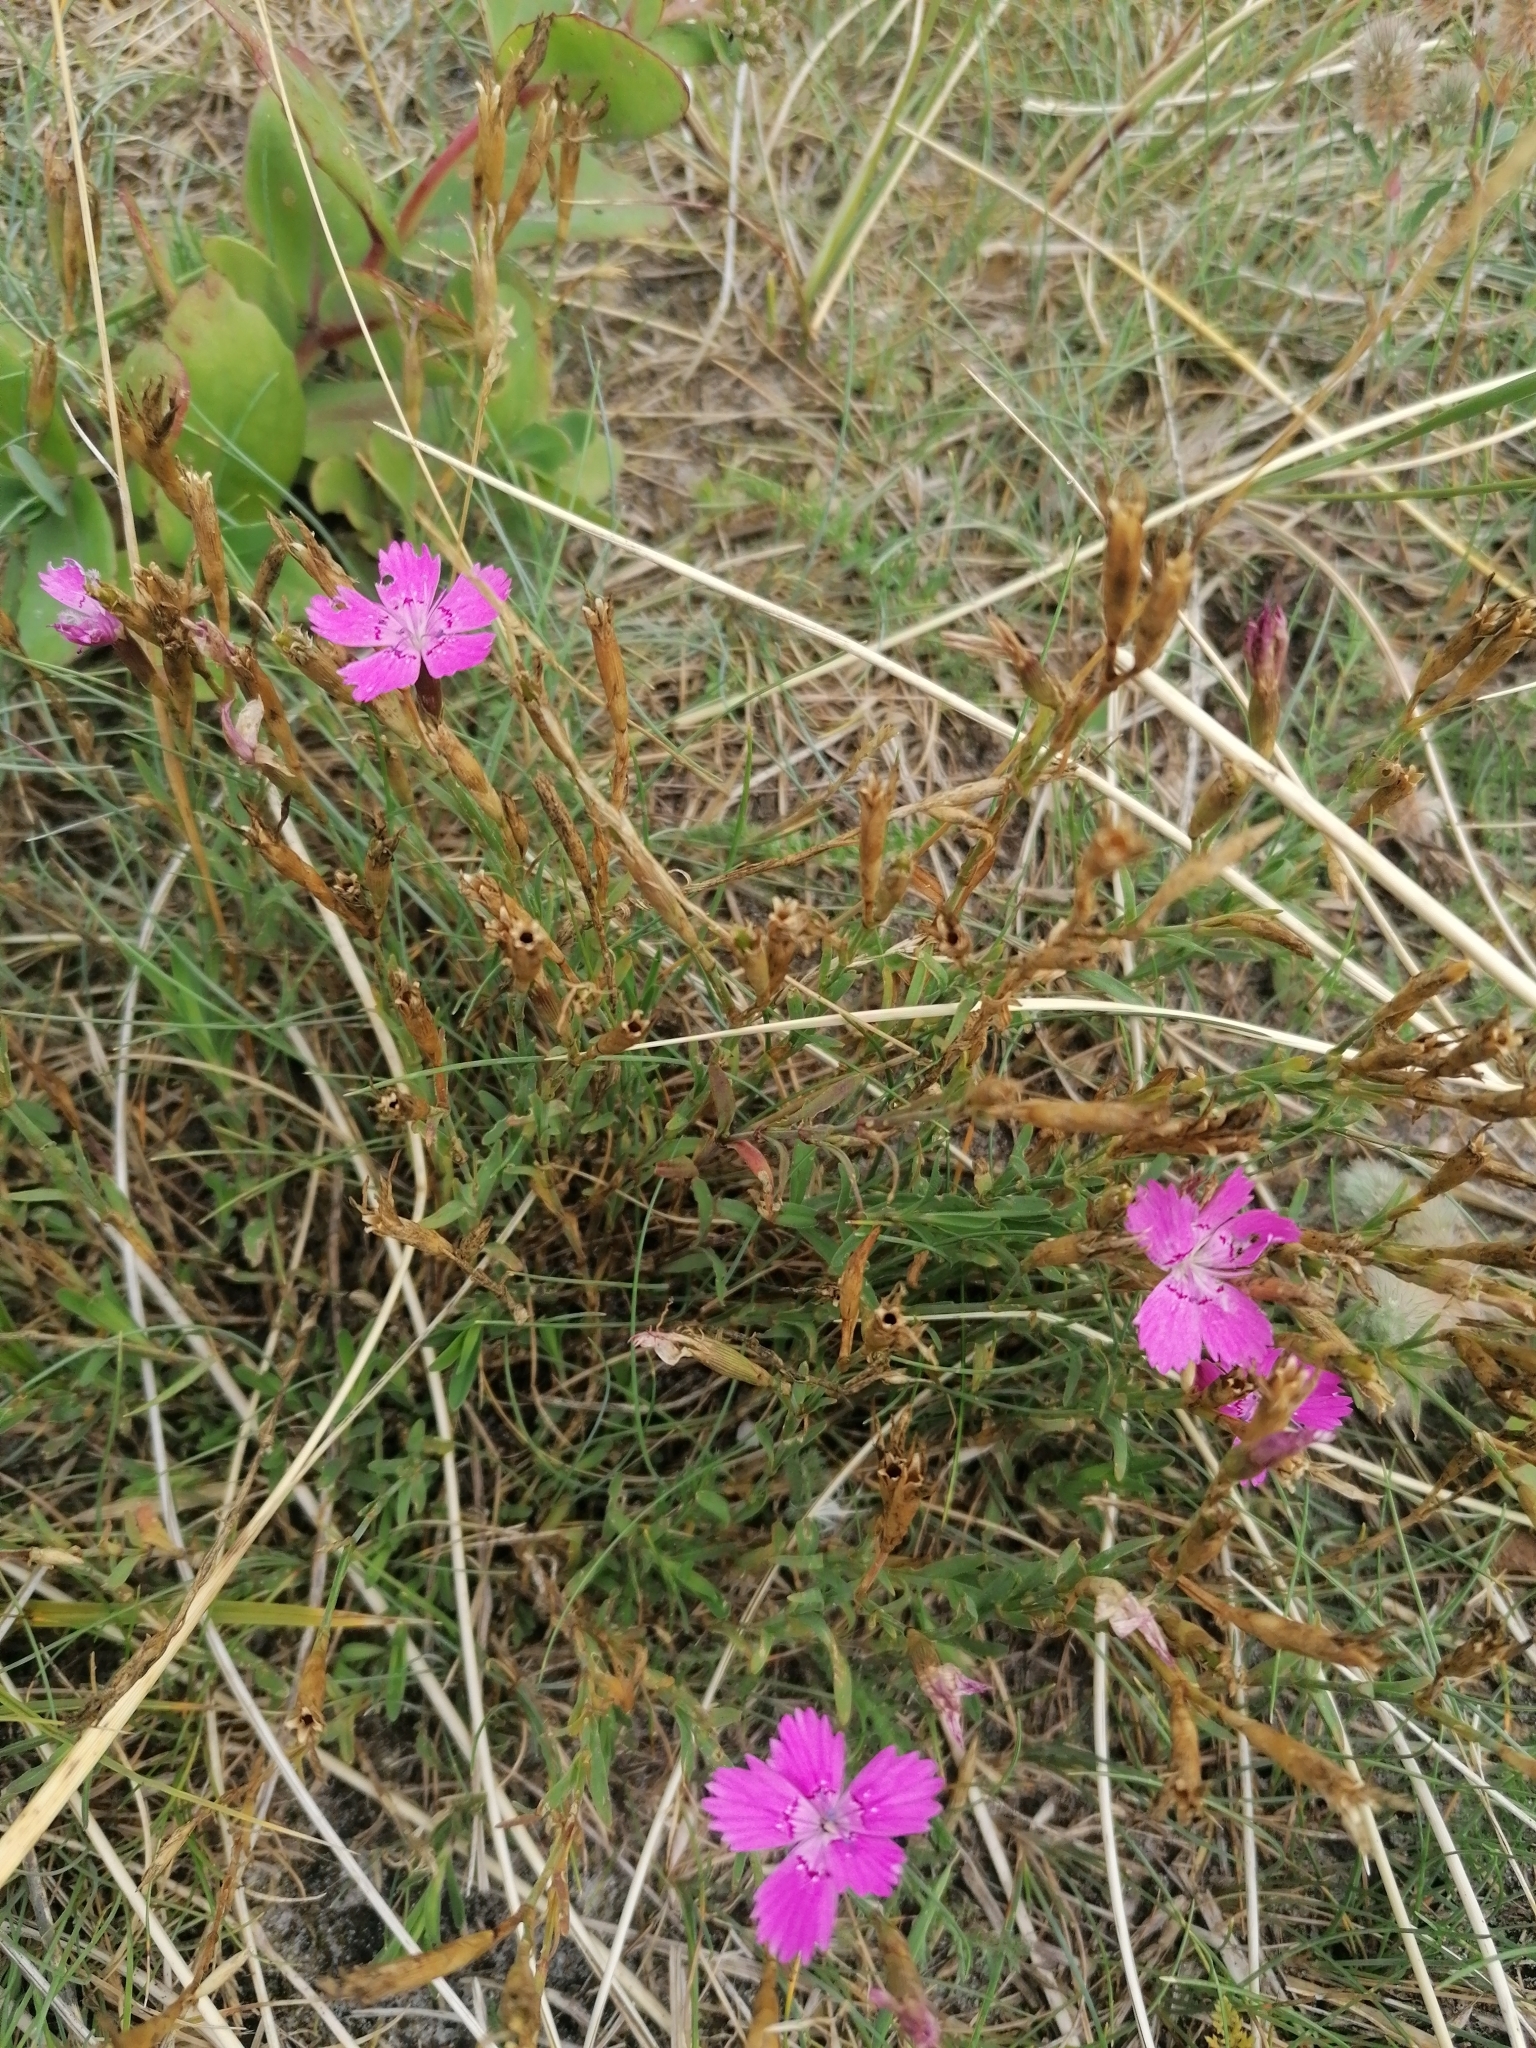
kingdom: Plantae
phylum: Tracheophyta
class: Magnoliopsida
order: Caryophyllales
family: Caryophyllaceae
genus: Dianthus
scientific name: Dianthus deltoides
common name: Maiden pink
